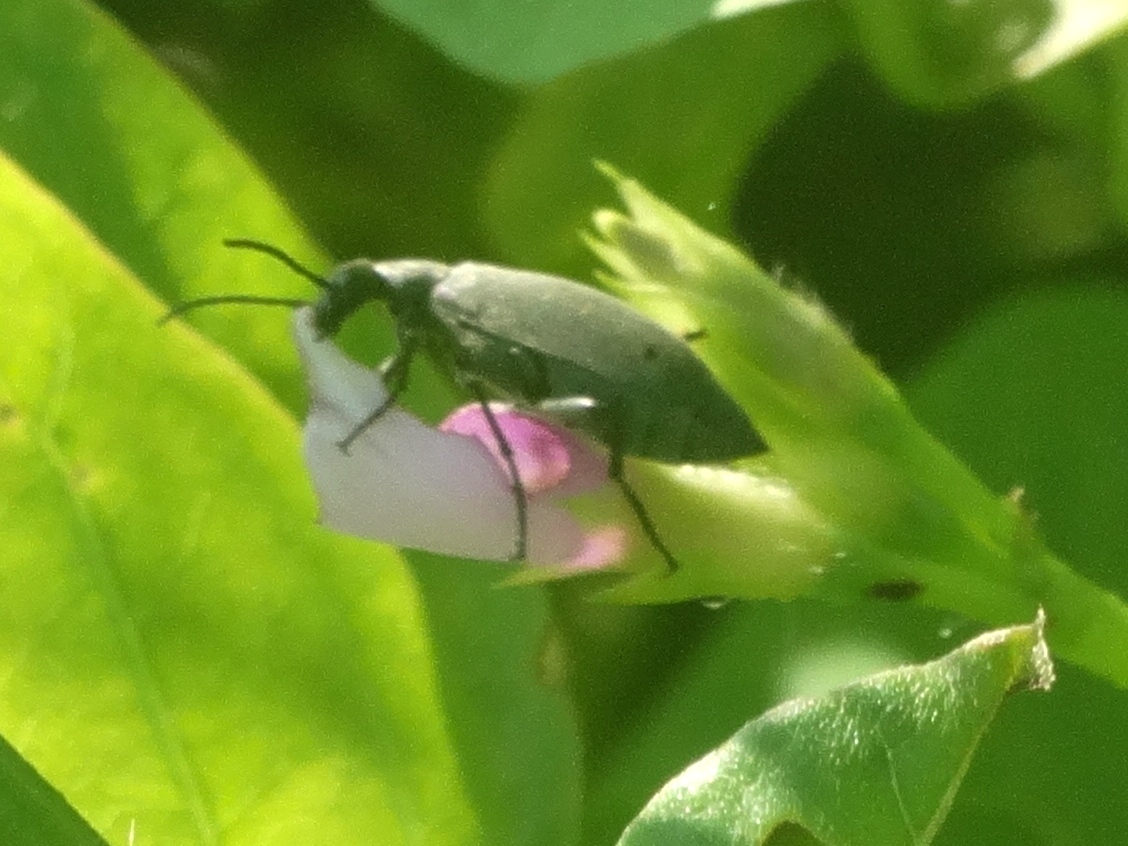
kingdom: Animalia
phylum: Arthropoda
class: Insecta
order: Coleoptera
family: Meloidae
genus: Epicauta
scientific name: Epicauta
